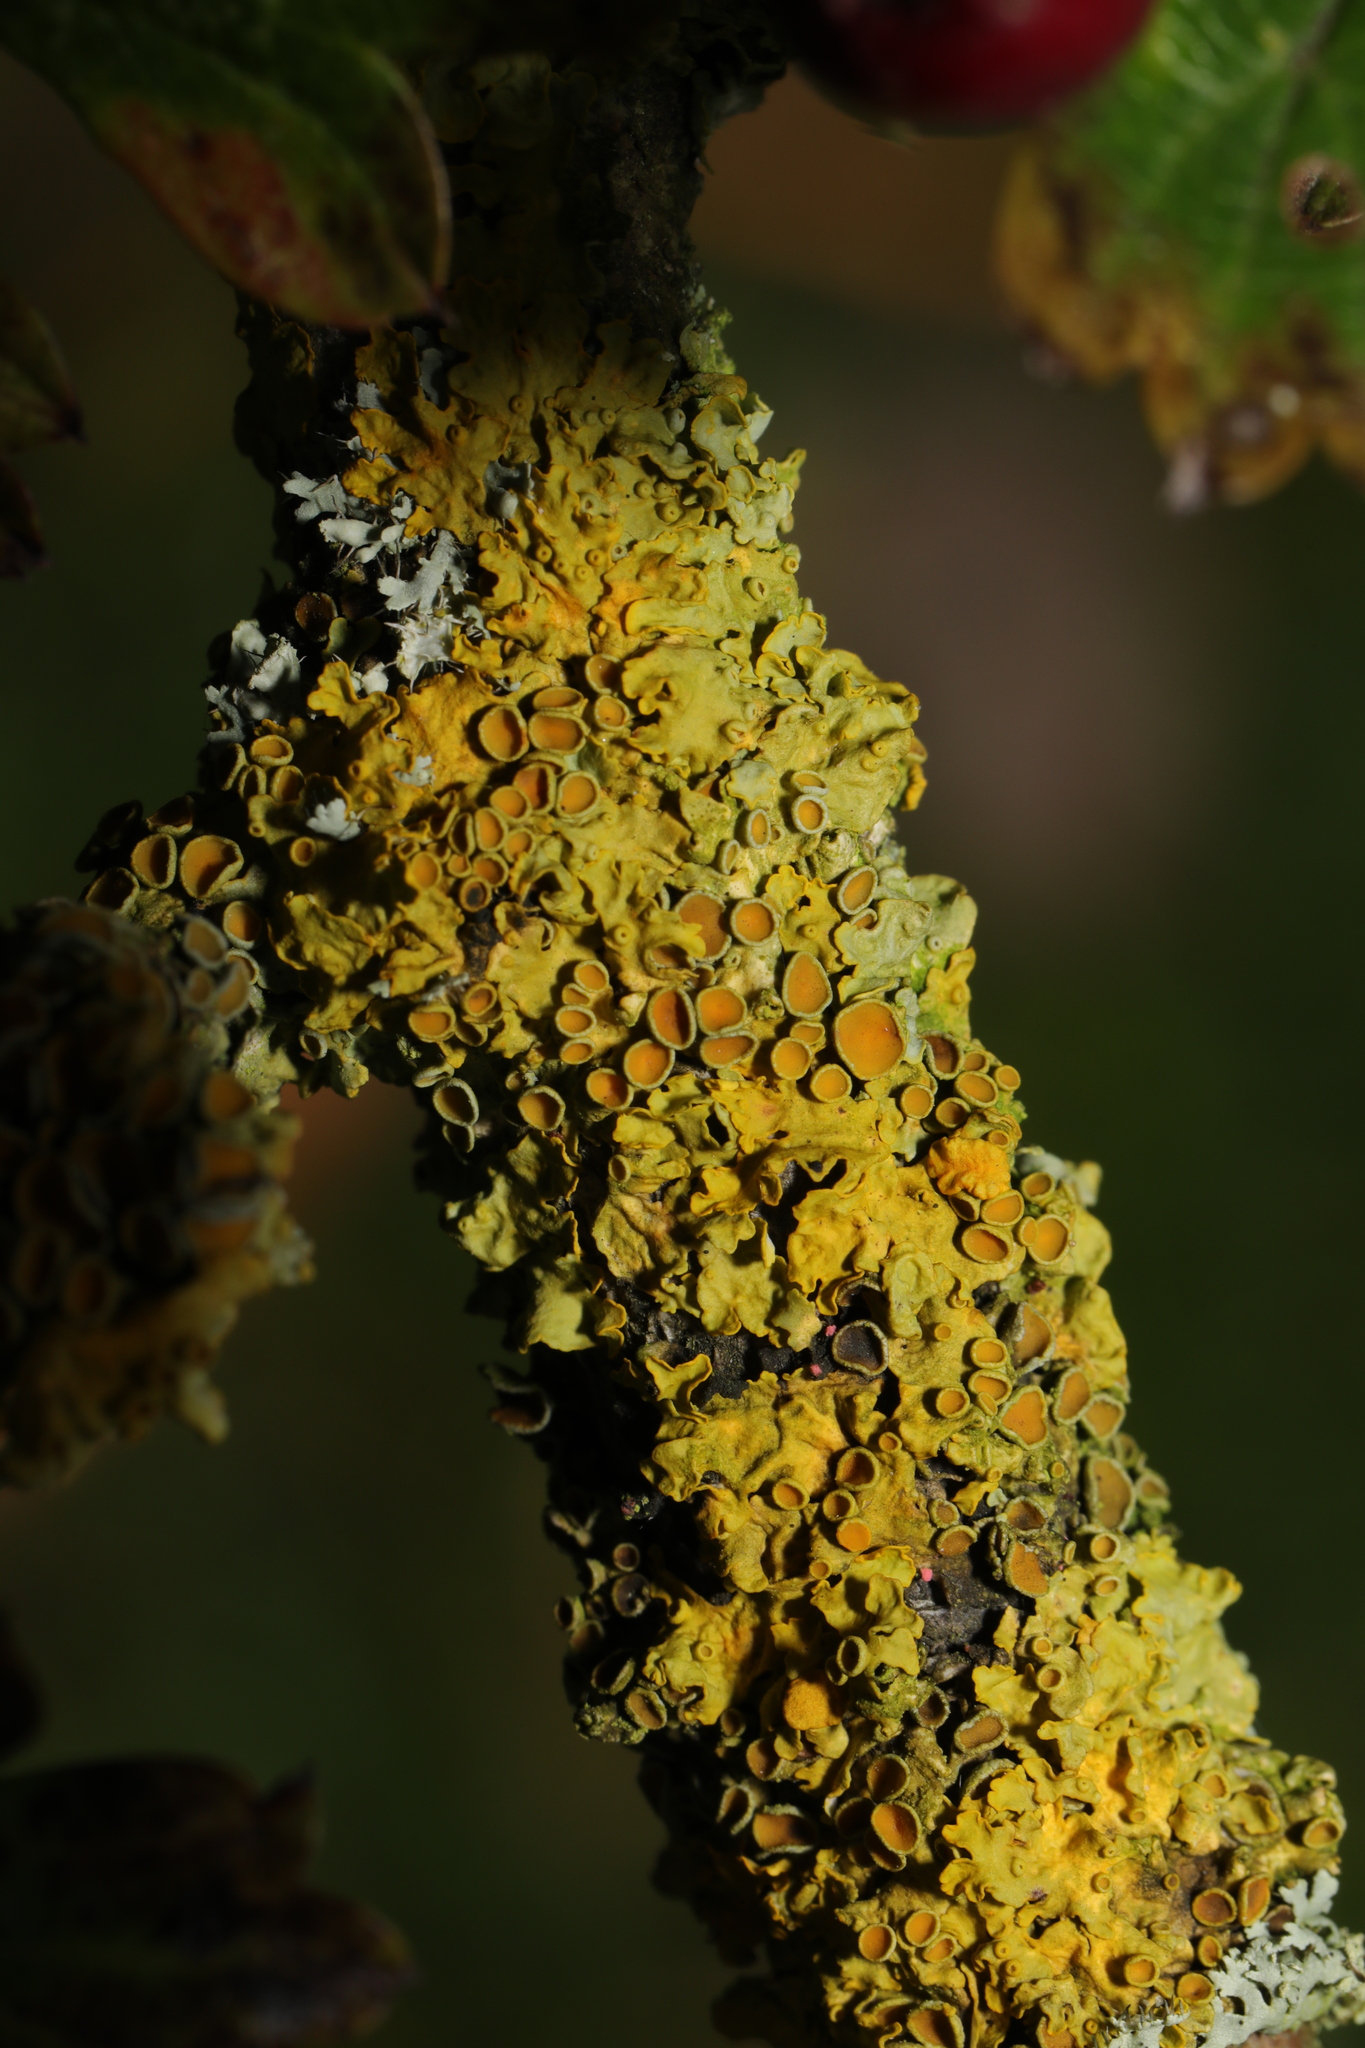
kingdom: Fungi
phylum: Ascomycota
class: Lecanoromycetes
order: Teloschistales
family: Teloschistaceae
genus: Xanthoria
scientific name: Xanthoria parietina
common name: Common orange lichen
